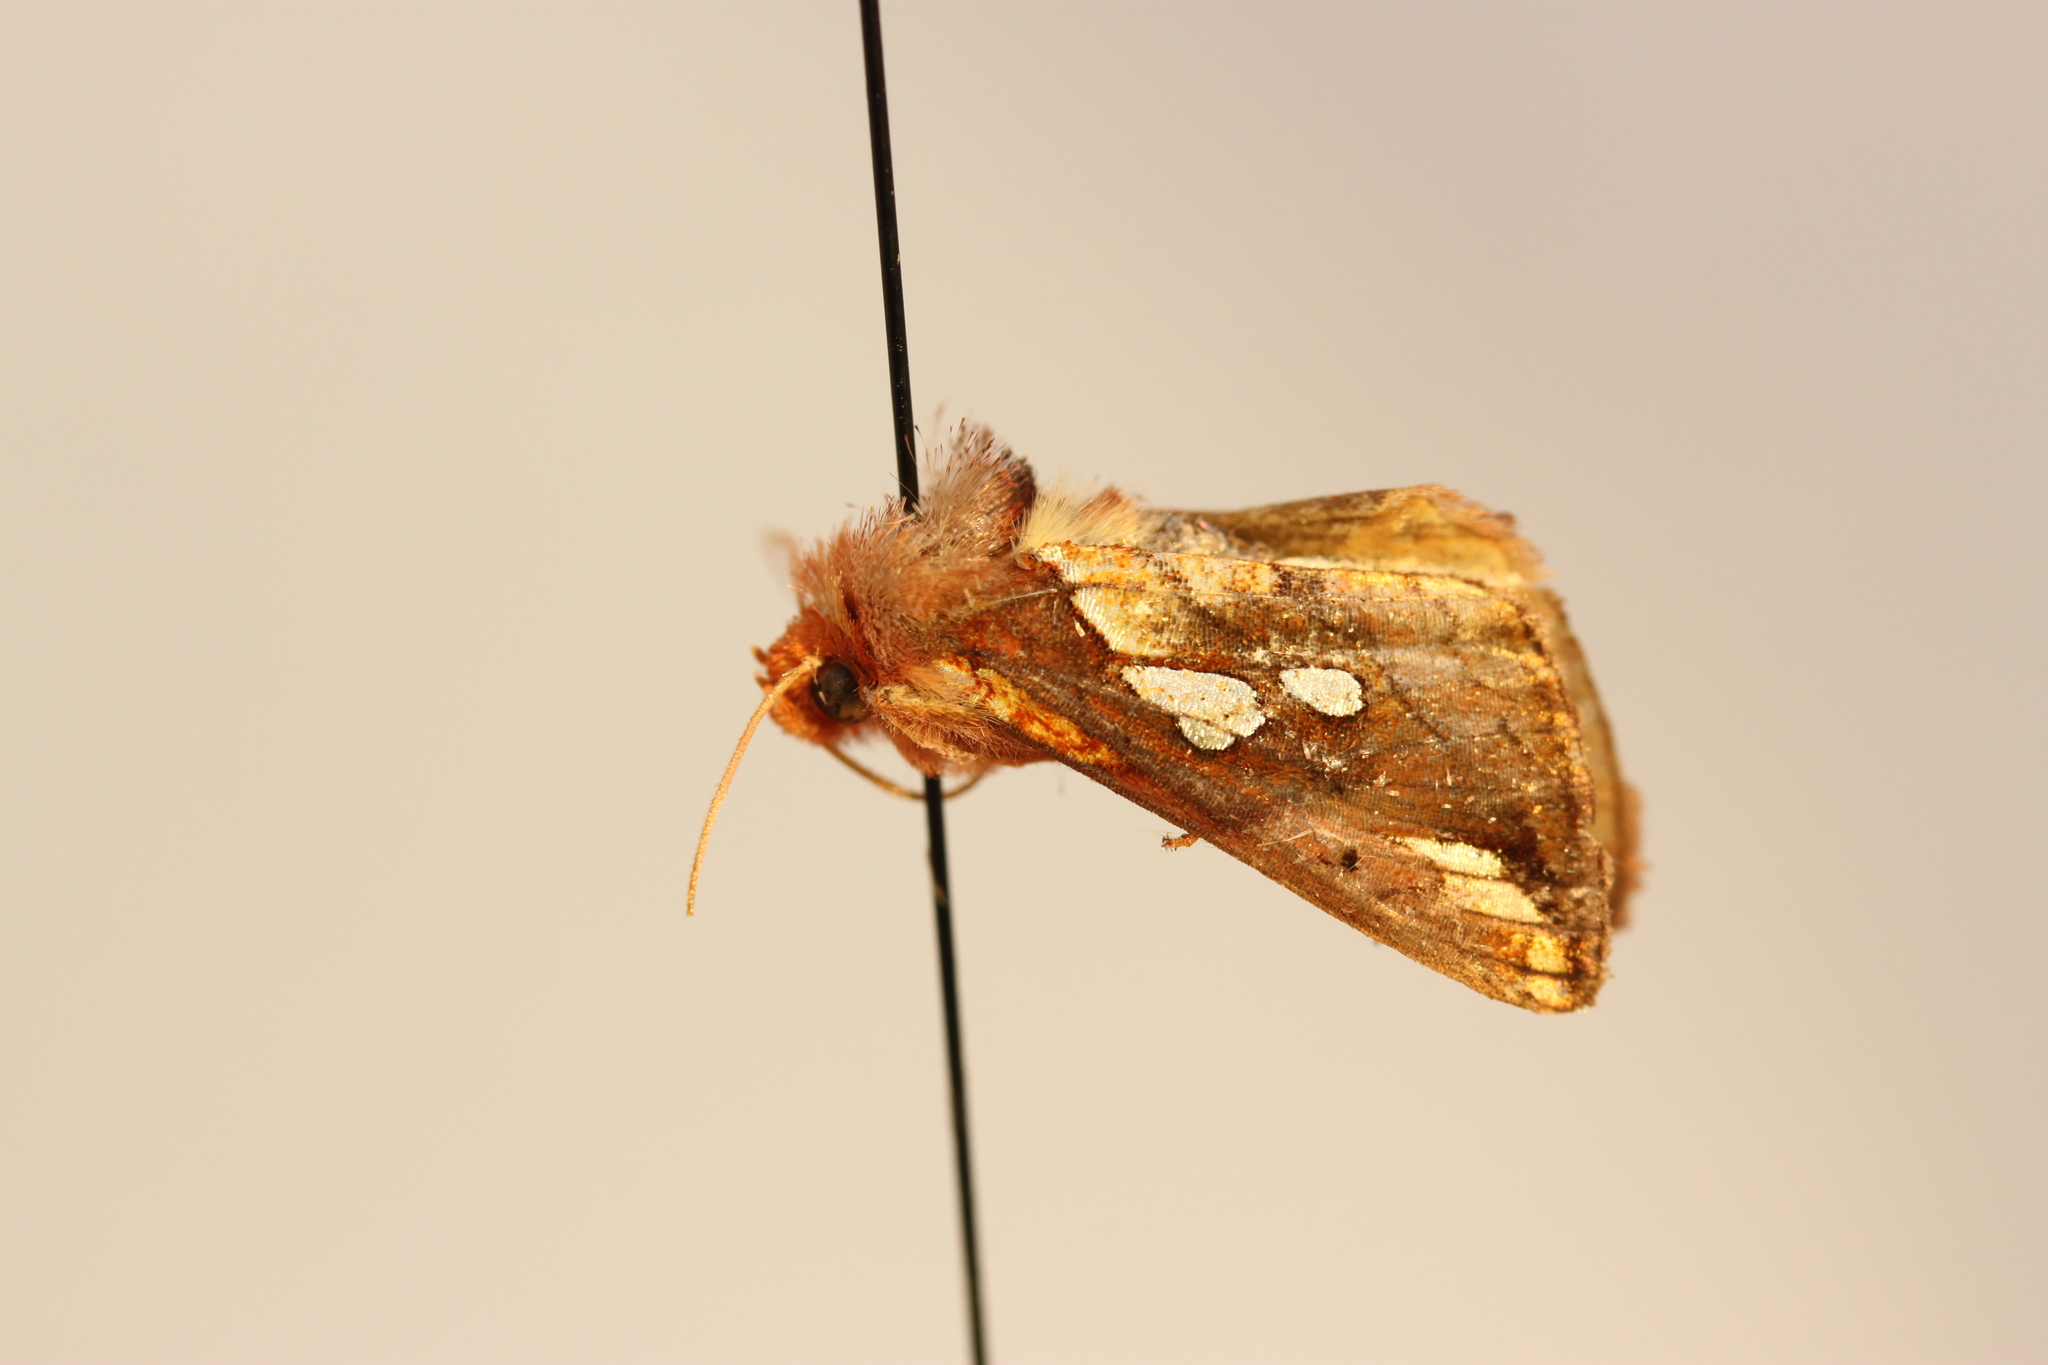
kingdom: Animalia
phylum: Arthropoda
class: Insecta
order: Lepidoptera
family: Noctuidae
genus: Plusia
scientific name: Plusia magnimacula
